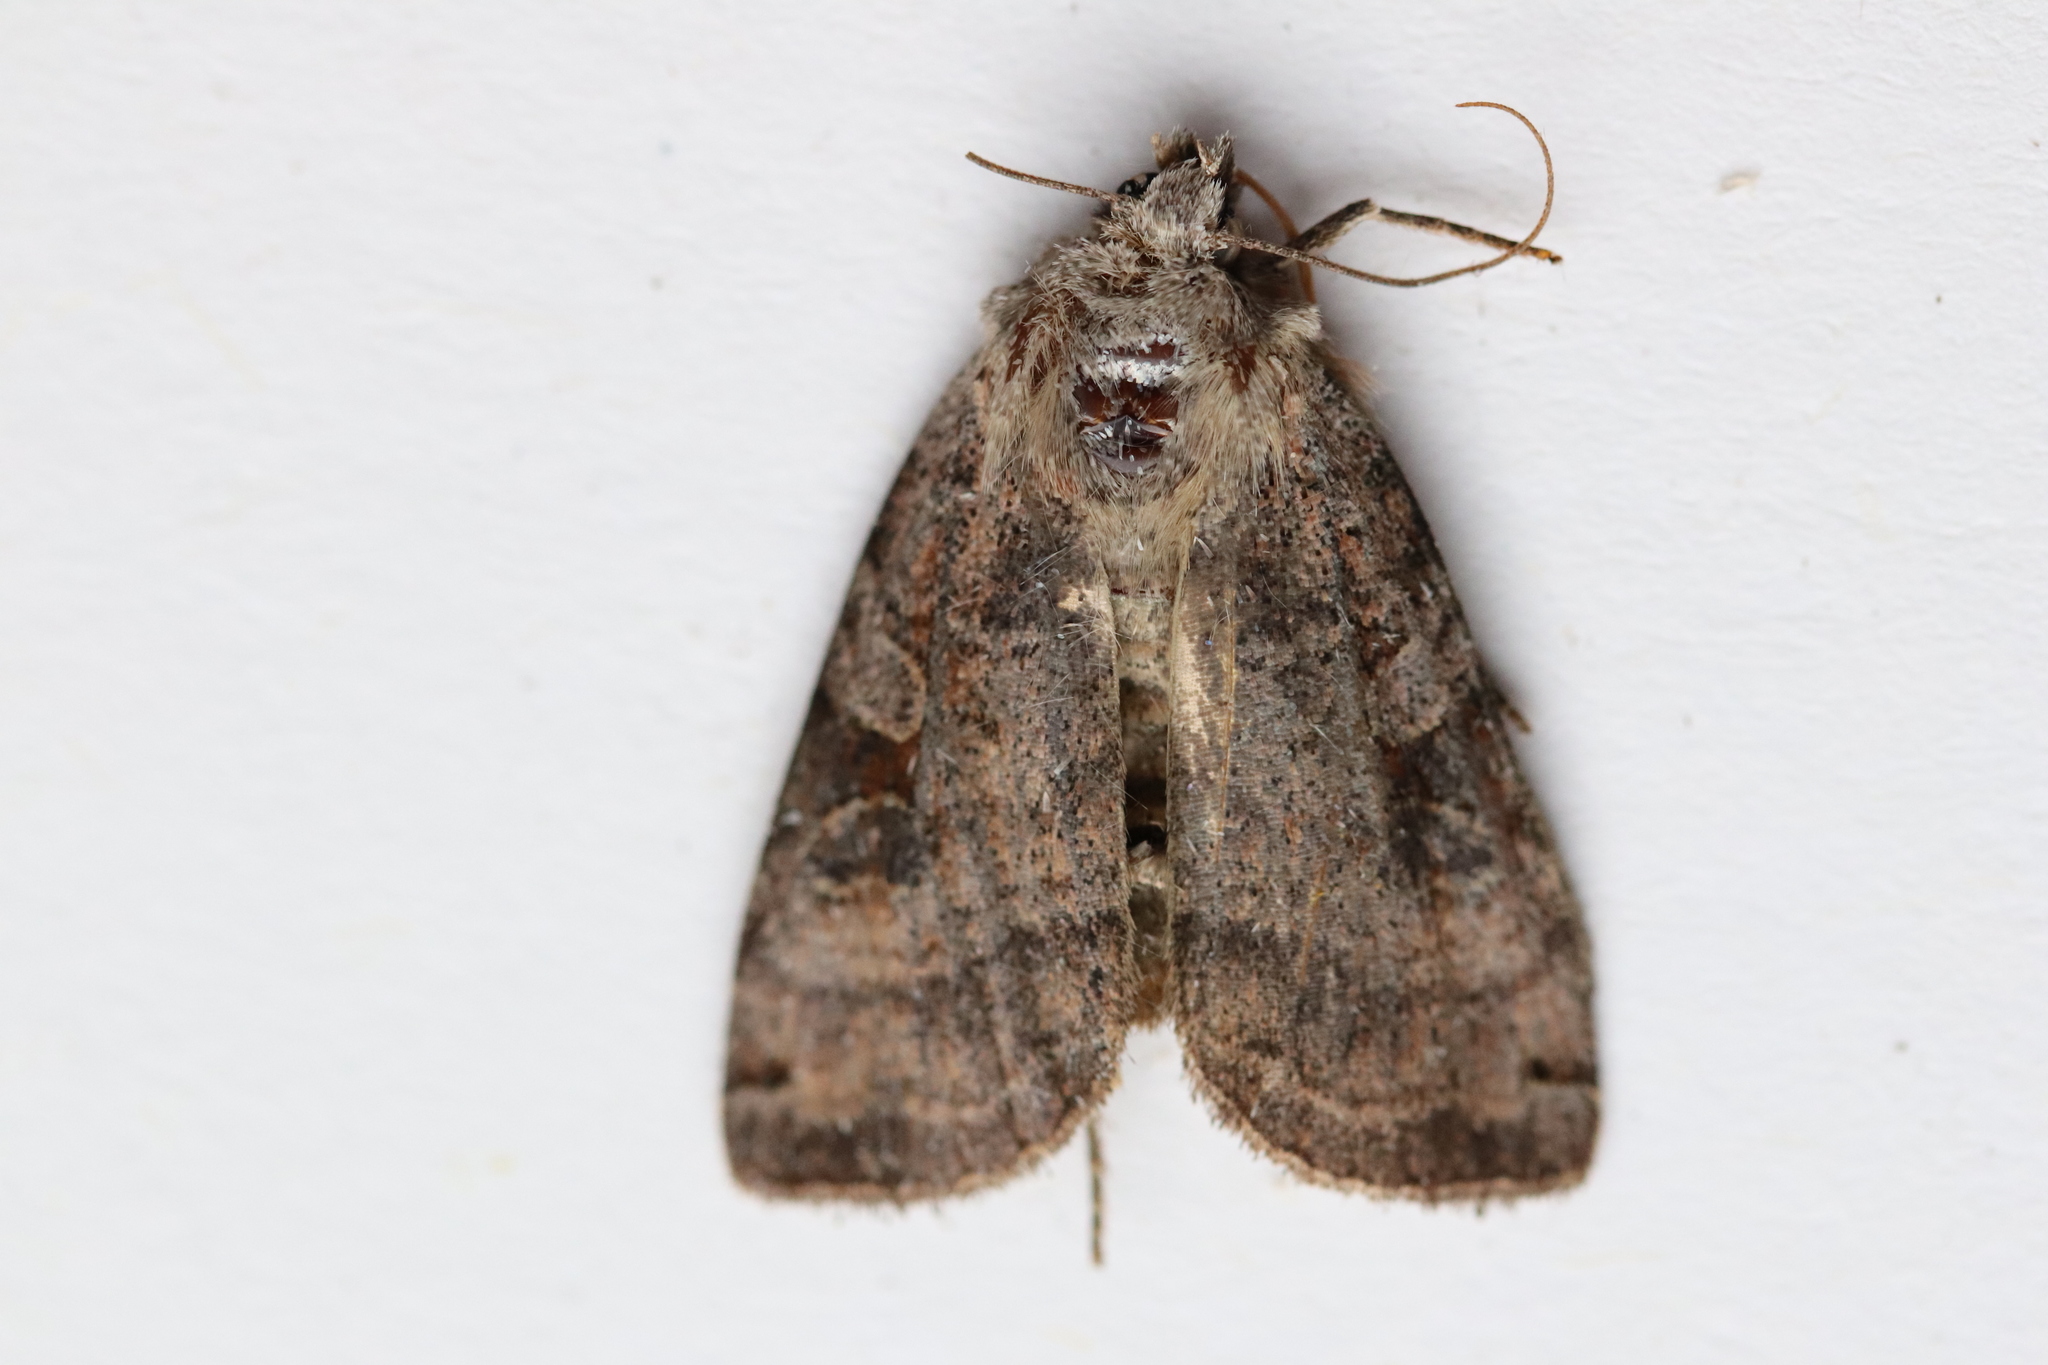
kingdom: Animalia
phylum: Arthropoda
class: Insecta
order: Lepidoptera
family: Noctuidae
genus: Xestia
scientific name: Xestia smithii
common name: Smith's dart
